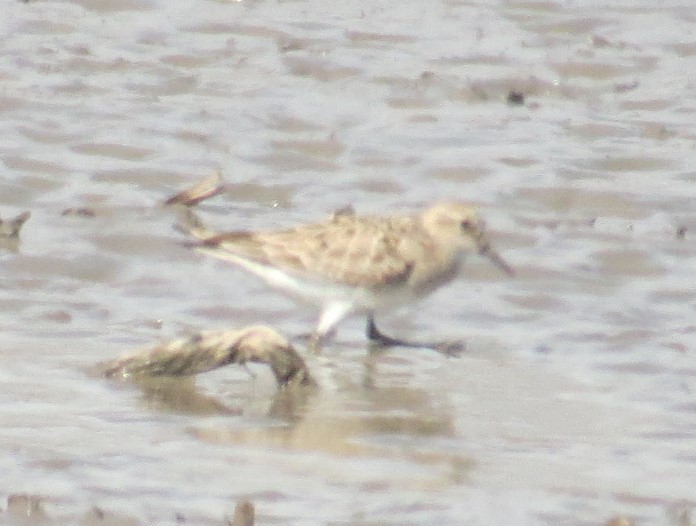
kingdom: Animalia
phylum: Chordata
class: Aves
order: Charadriiformes
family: Scolopacidae
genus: Calidris
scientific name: Calidris bairdii
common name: Baird's sandpiper
